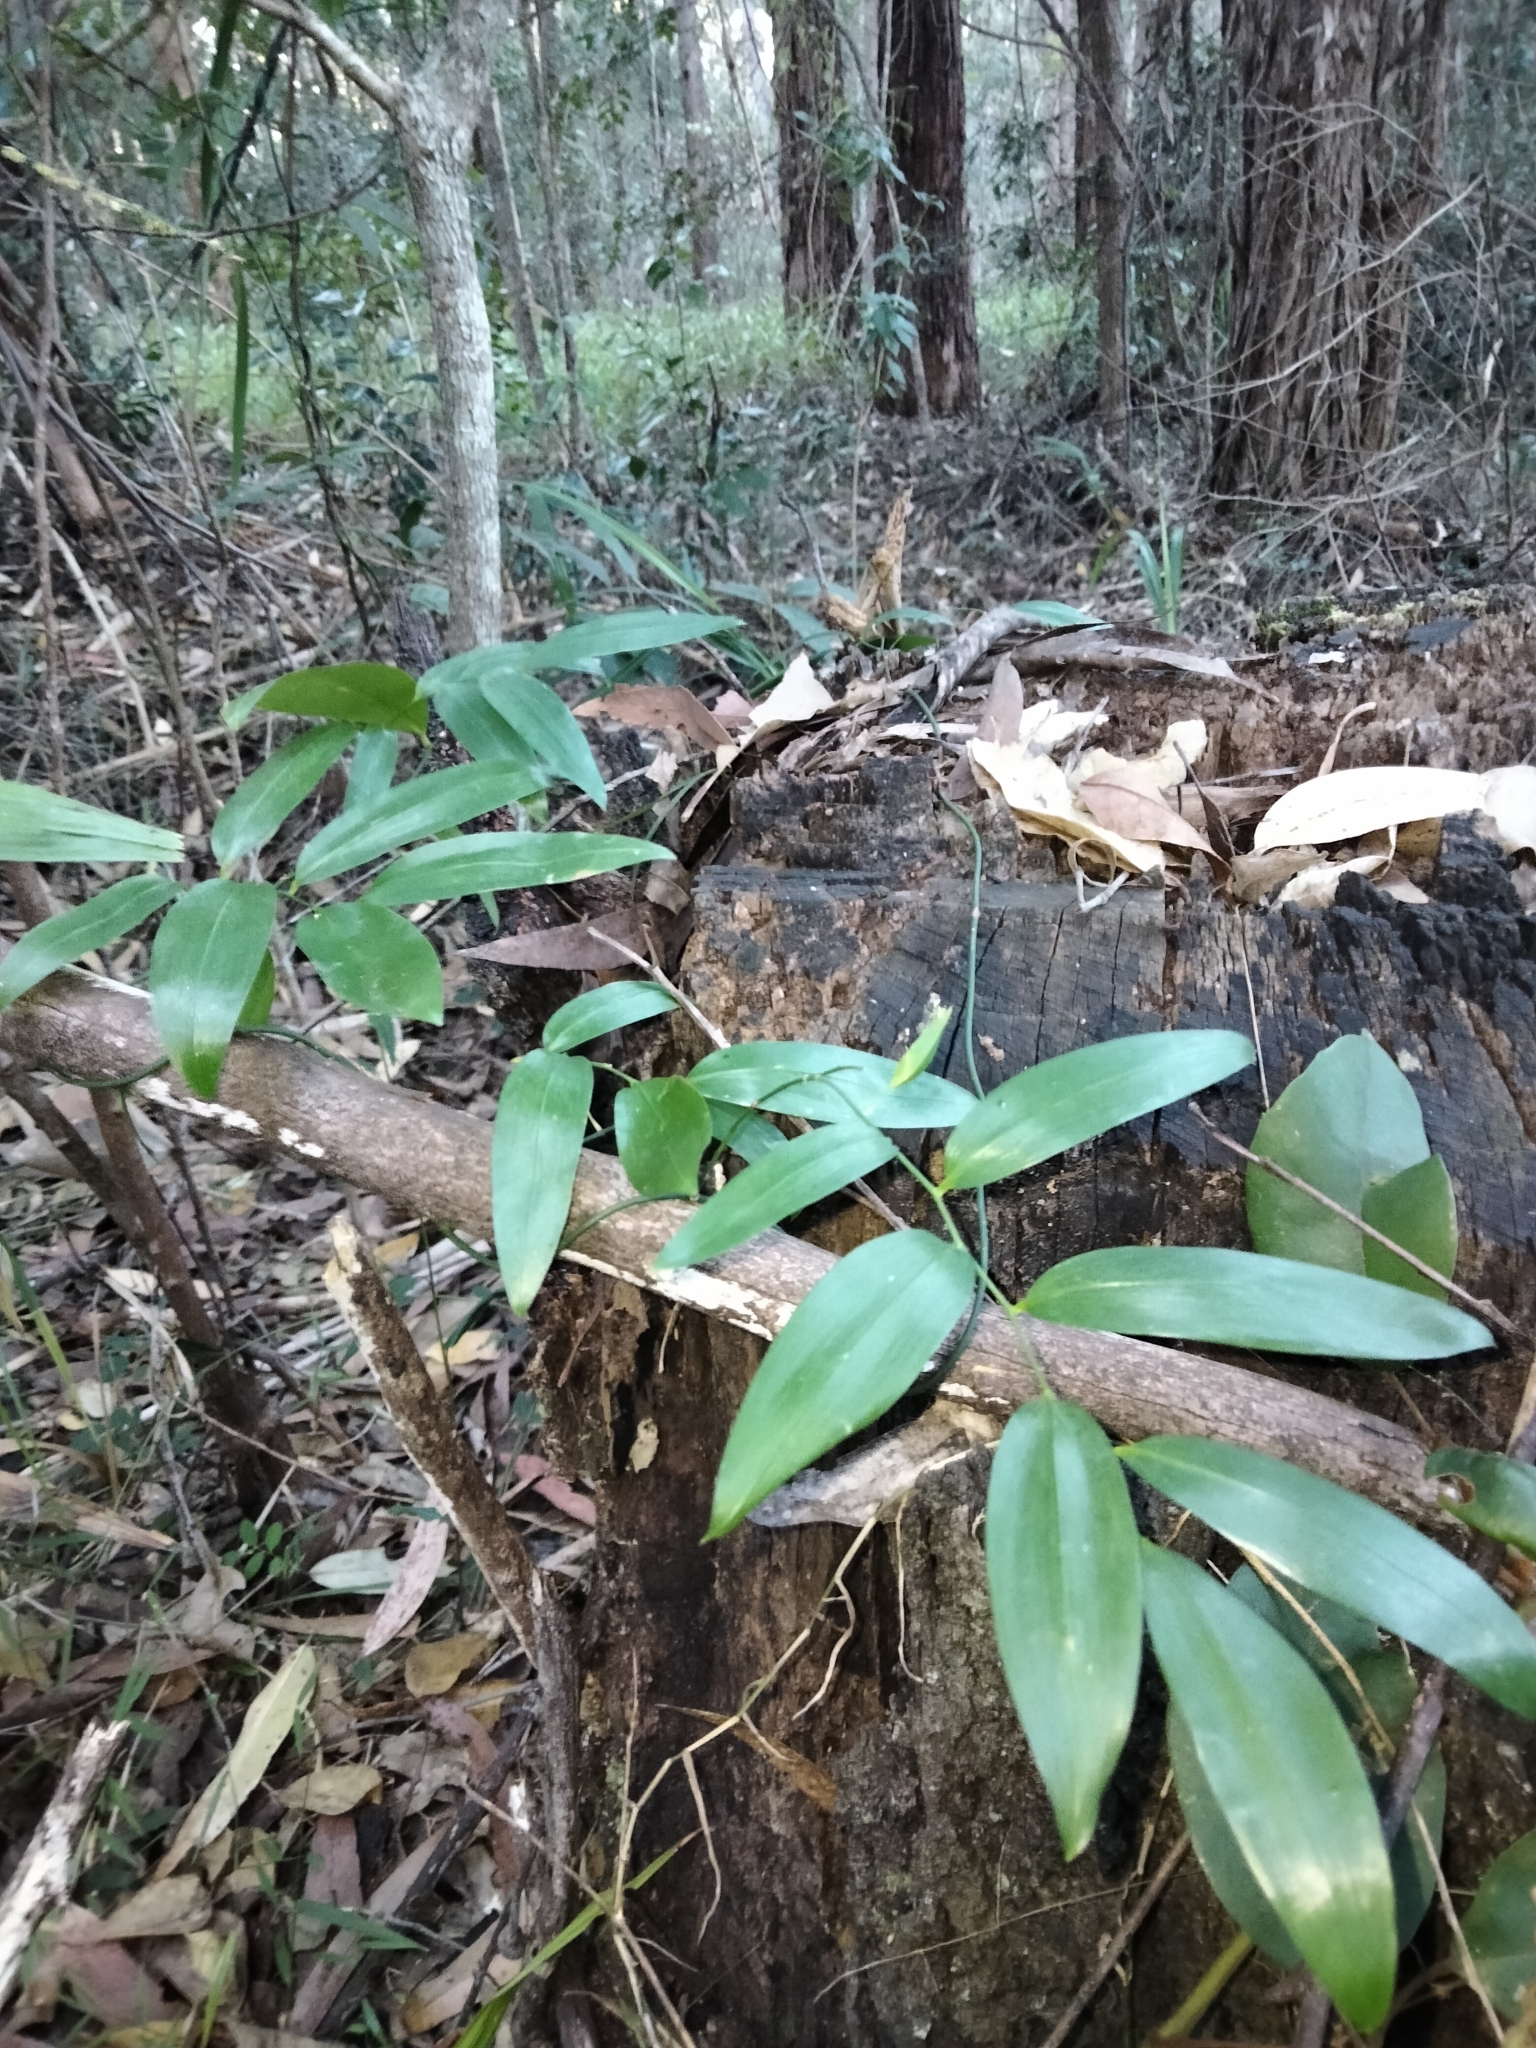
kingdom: Plantae
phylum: Tracheophyta
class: Liliopsida
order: Asparagales
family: Asphodelaceae
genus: Geitonoplesium
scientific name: Geitonoplesium cymosum
